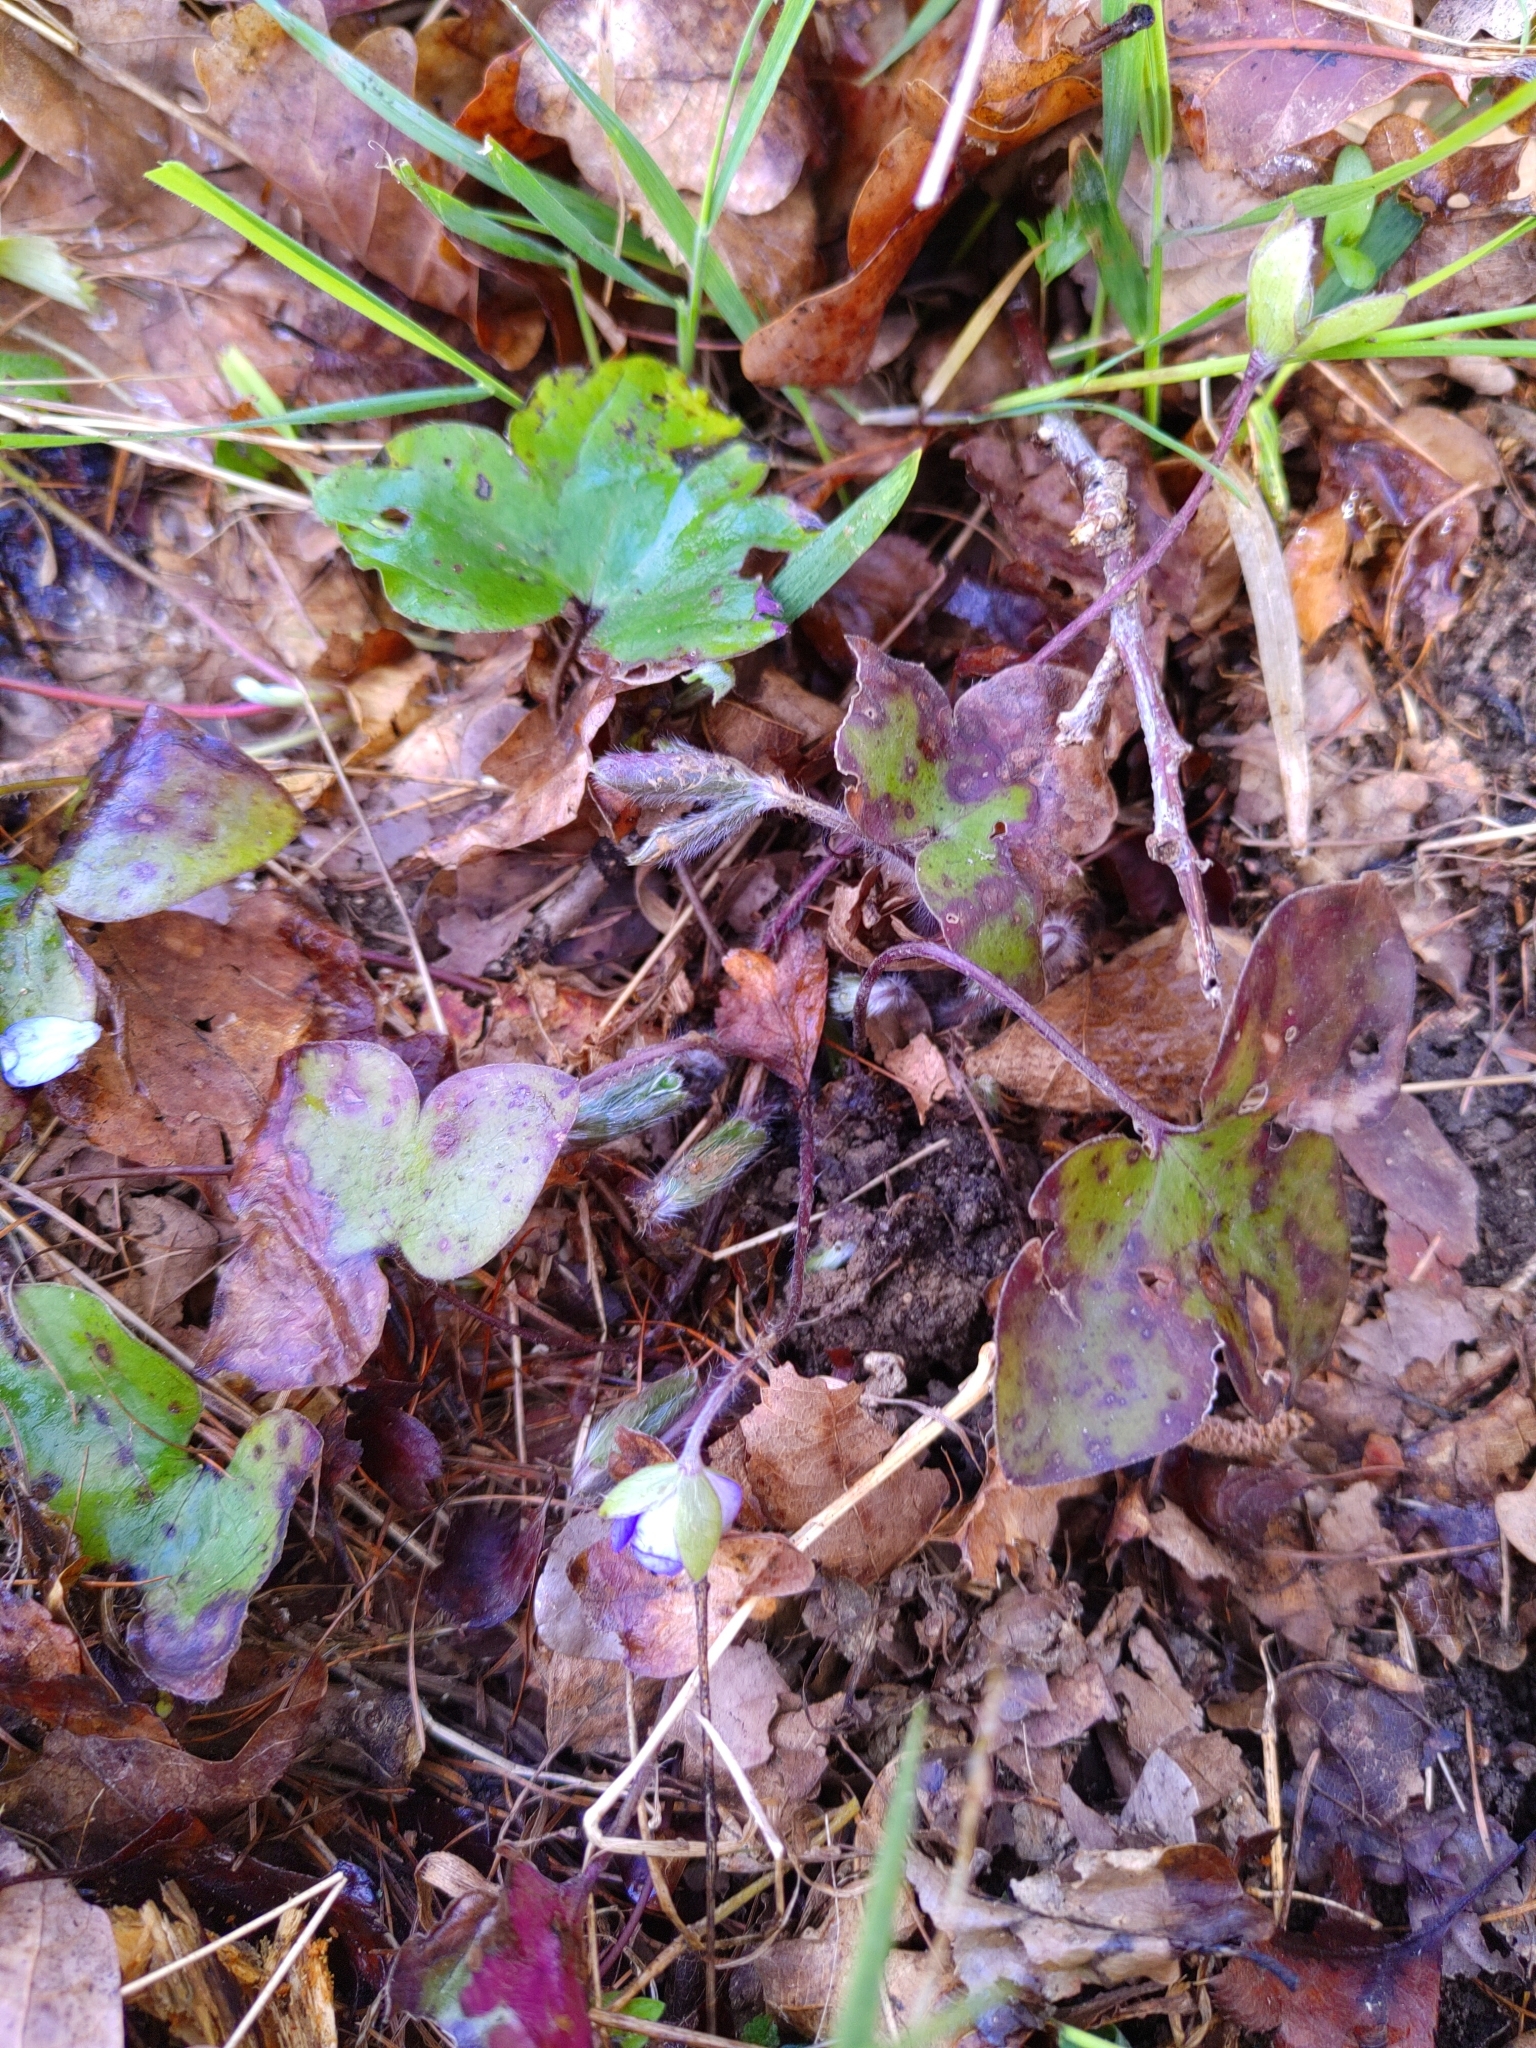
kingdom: Plantae
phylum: Tracheophyta
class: Magnoliopsida
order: Ranunculales
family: Ranunculaceae
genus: Hepatica
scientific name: Hepatica nobilis
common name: Liverleaf
